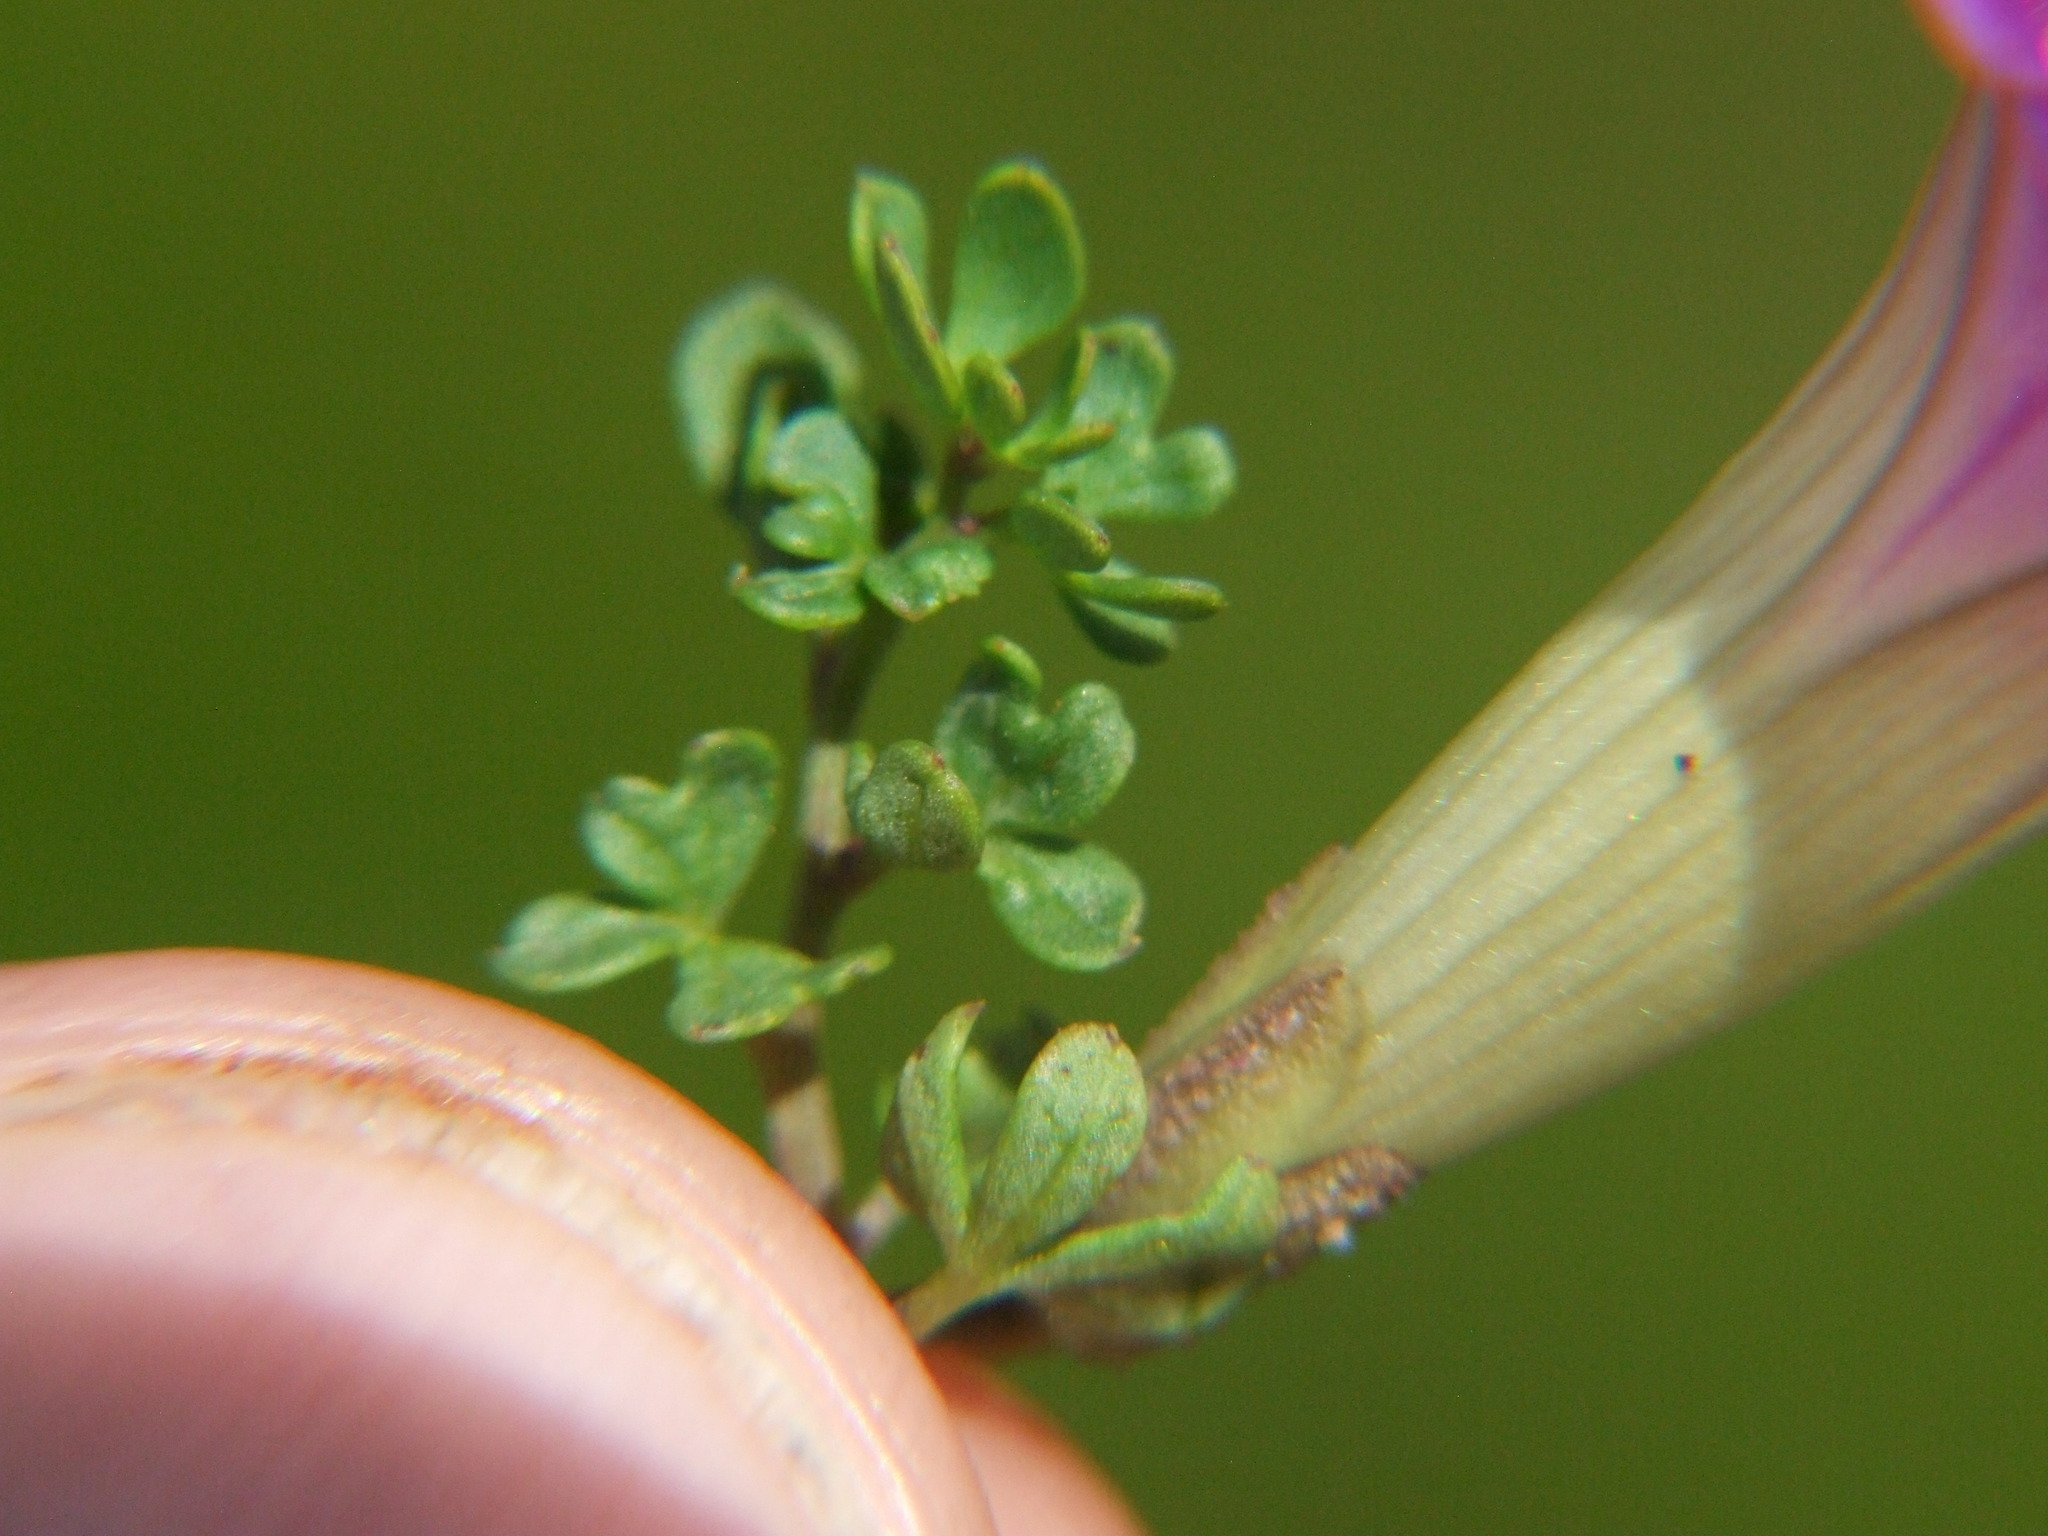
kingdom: Plantae
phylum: Tracheophyta
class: Magnoliopsida
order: Solanales
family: Convolvulaceae
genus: Ipomoea
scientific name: Ipomoea plummerae
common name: Plummer's morning-glory
